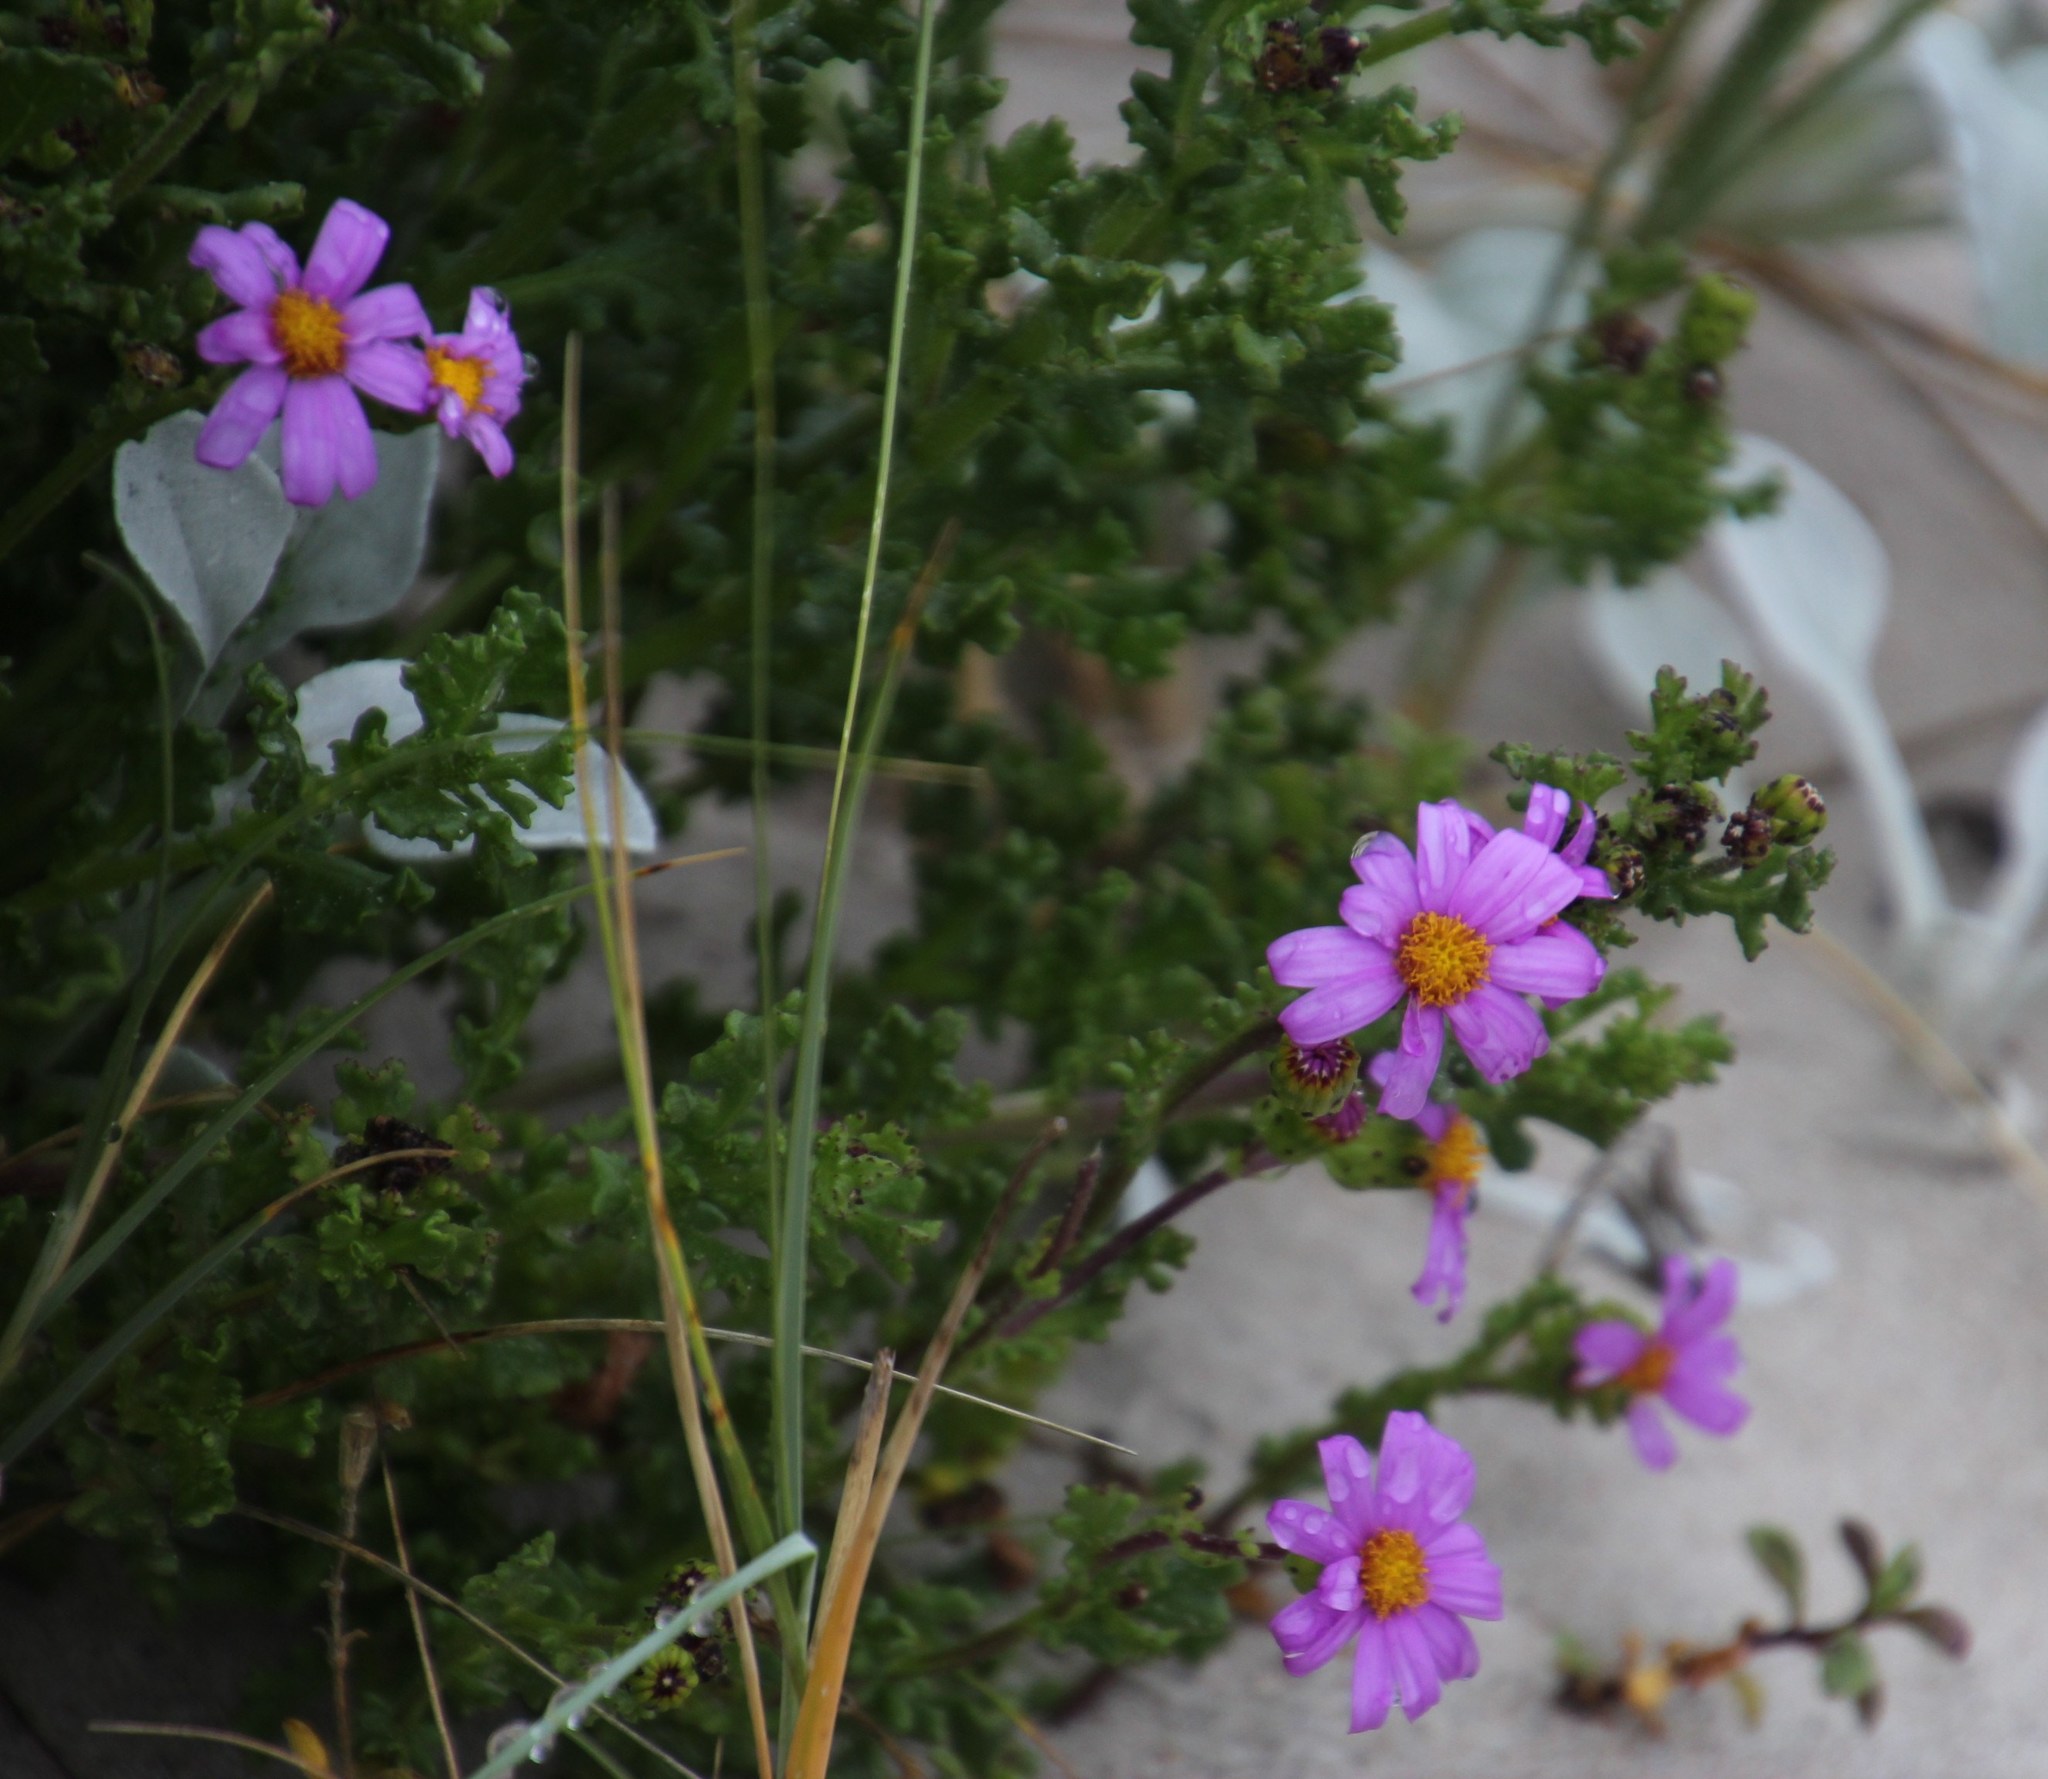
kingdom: Plantae
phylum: Tracheophyta
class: Magnoliopsida
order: Asterales
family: Asteraceae
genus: Senecio
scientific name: Senecio elegans
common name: Purple groundsel
